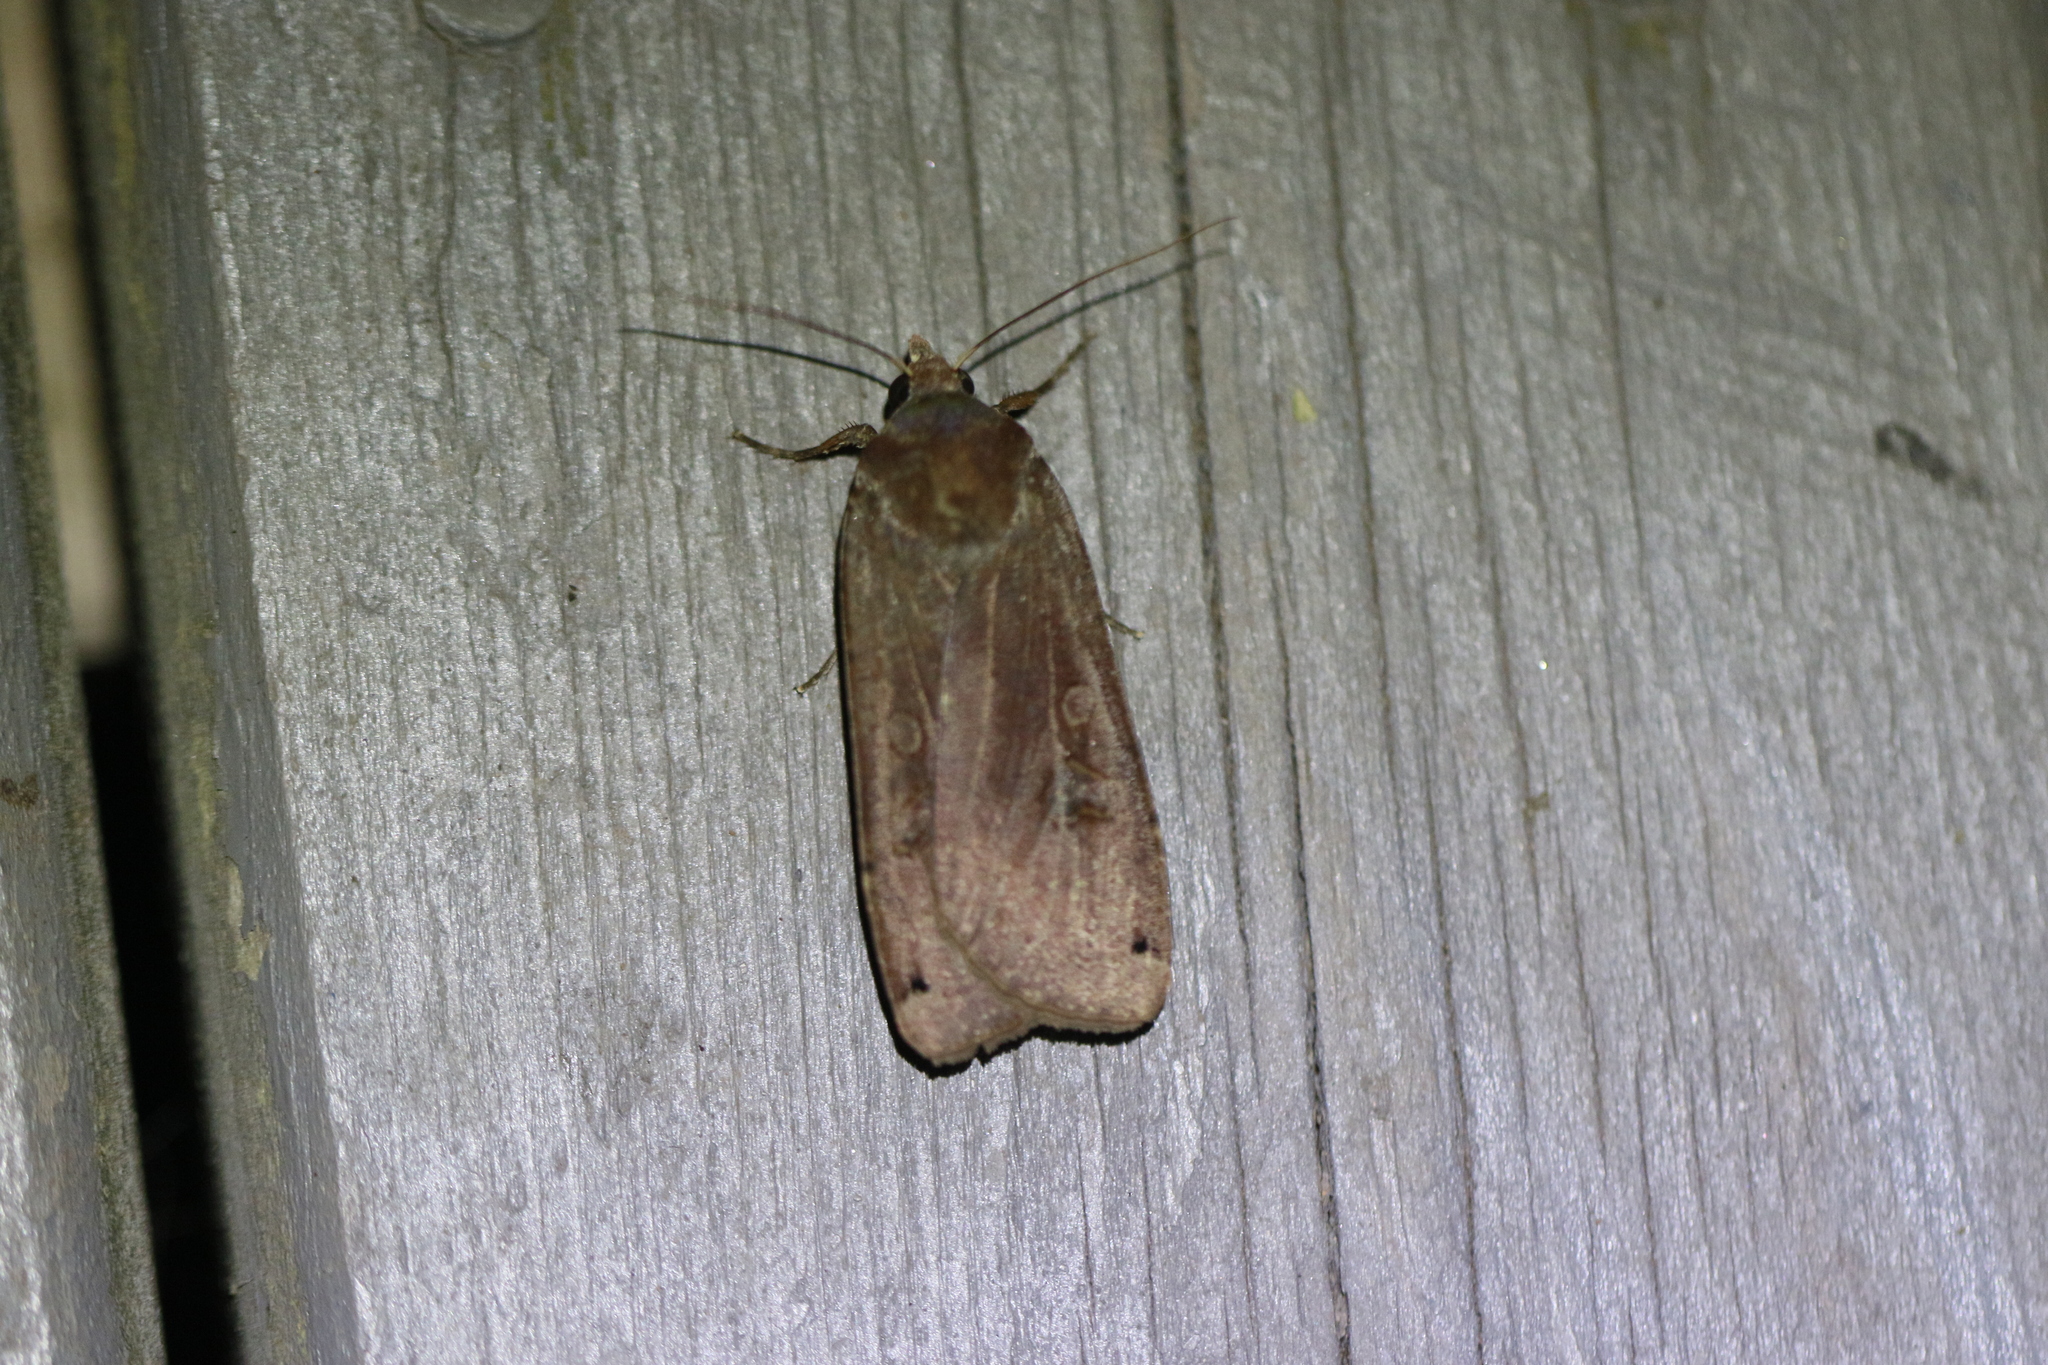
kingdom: Animalia
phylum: Arthropoda
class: Insecta
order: Lepidoptera
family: Noctuidae
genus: Noctua
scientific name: Noctua pronuba
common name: Large yellow underwing
